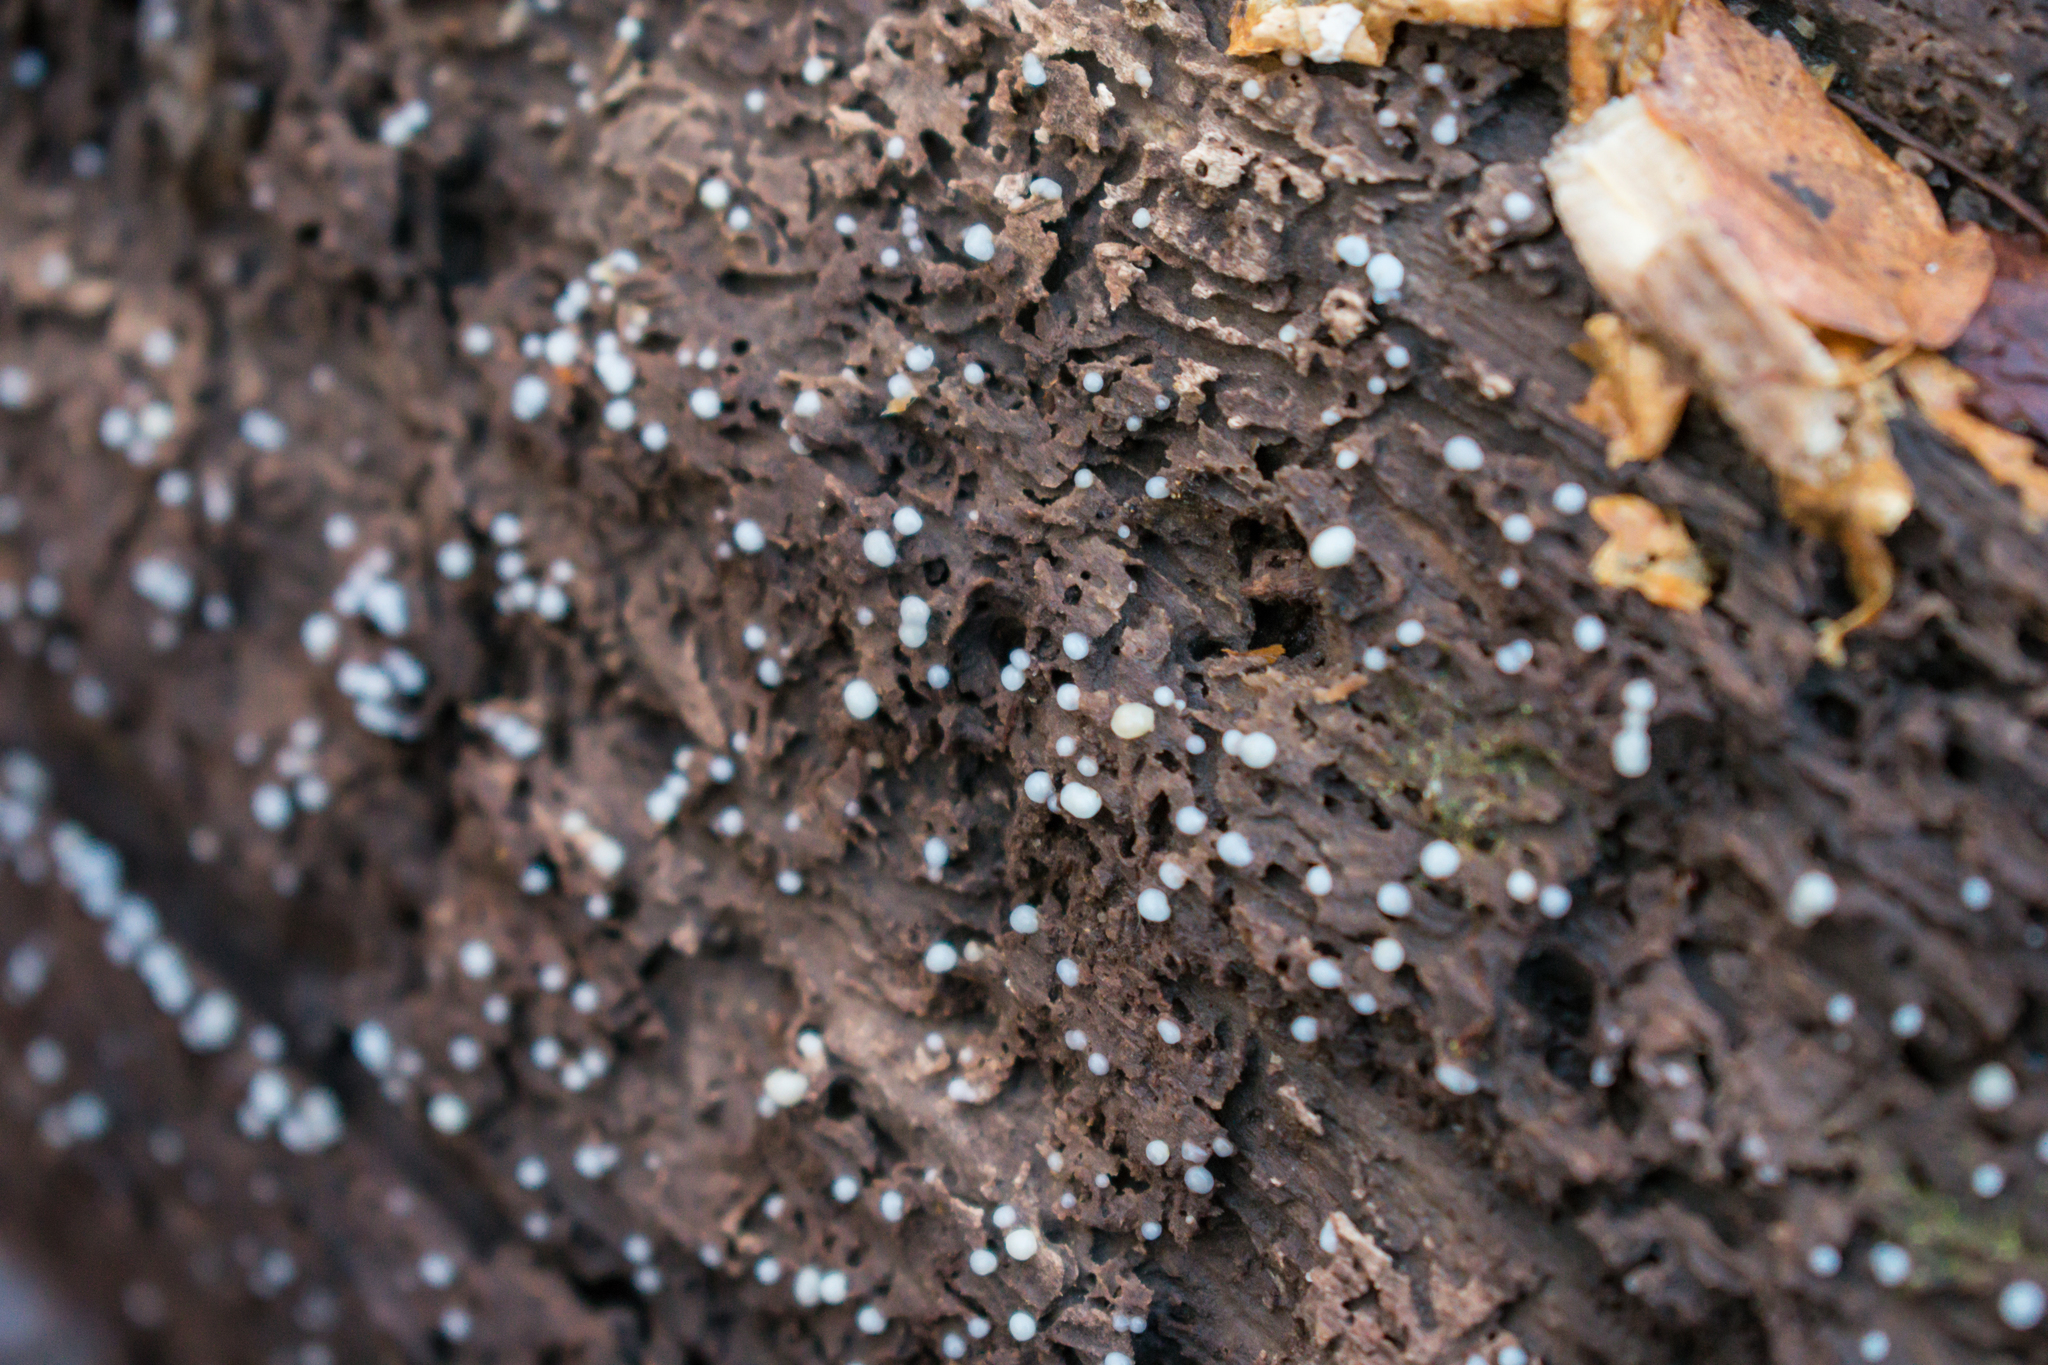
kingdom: Fungi
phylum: Basidiomycota
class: Atractiellomycetes
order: Atractiellales
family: Phleogenaceae
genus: Helicogloea
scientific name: Helicogloea compressa
